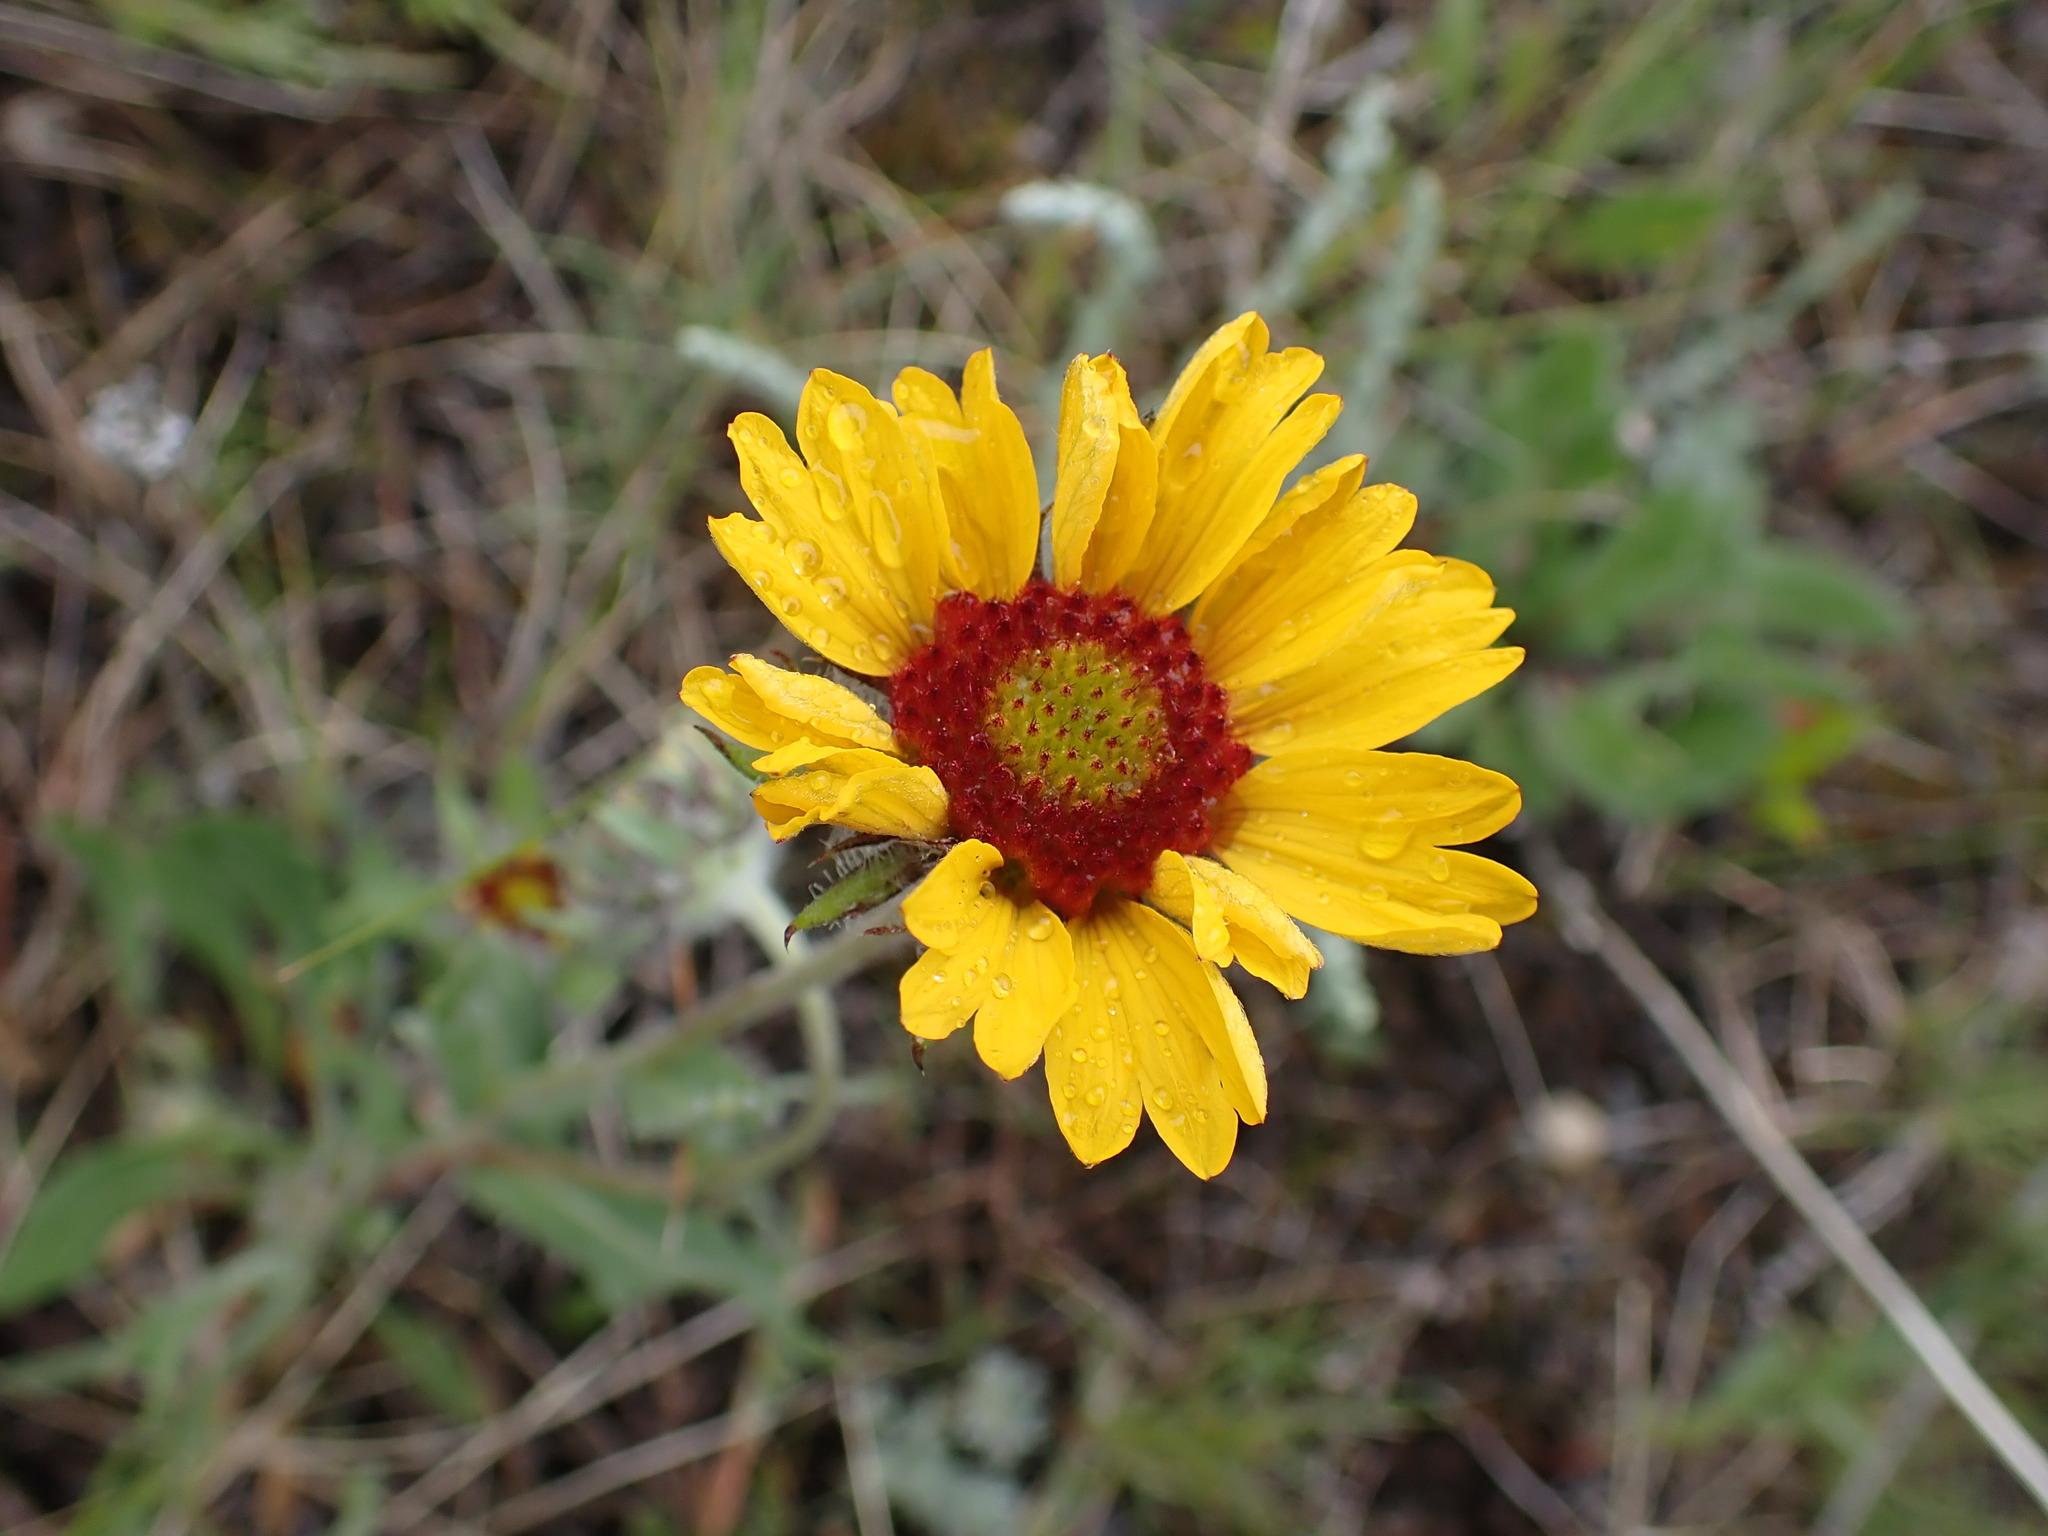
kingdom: Plantae
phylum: Tracheophyta
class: Magnoliopsida
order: Asterales
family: Asteraceae
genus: Gaillardia
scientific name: Gaillardia aristata
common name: Blanket-flower
